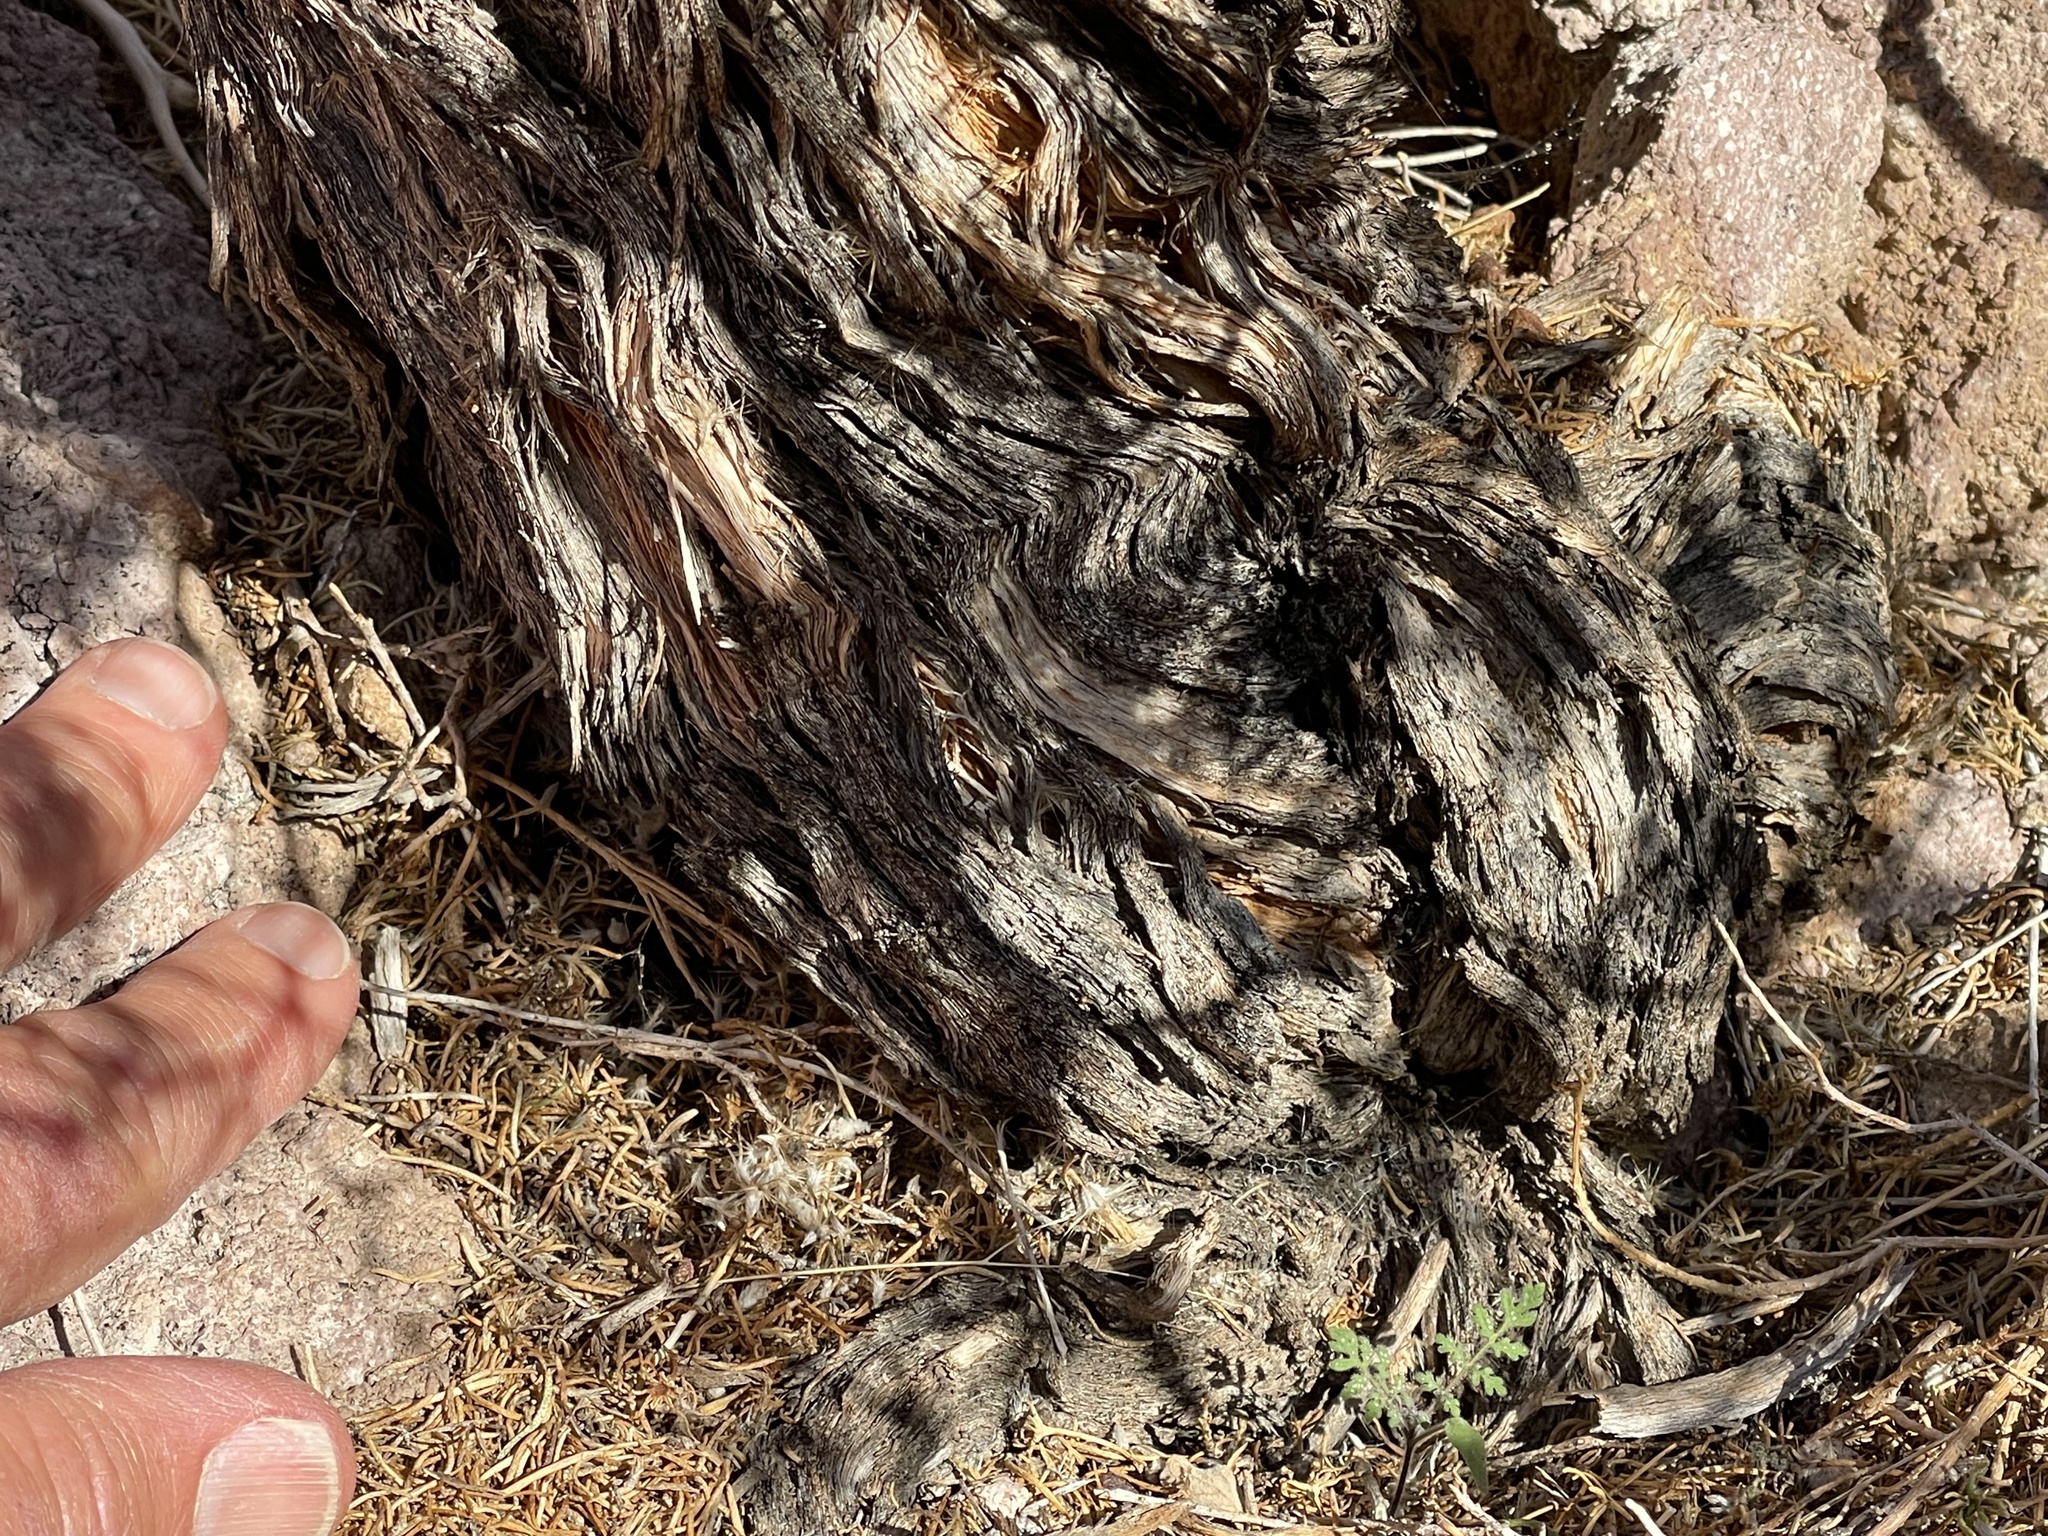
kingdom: Plantae
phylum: Tracheophyta
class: Magnoliopsida
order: Asterales
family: Asteraceae
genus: Peucephyllum
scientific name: Peucephyllum schottii
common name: Pygmy-cedar
